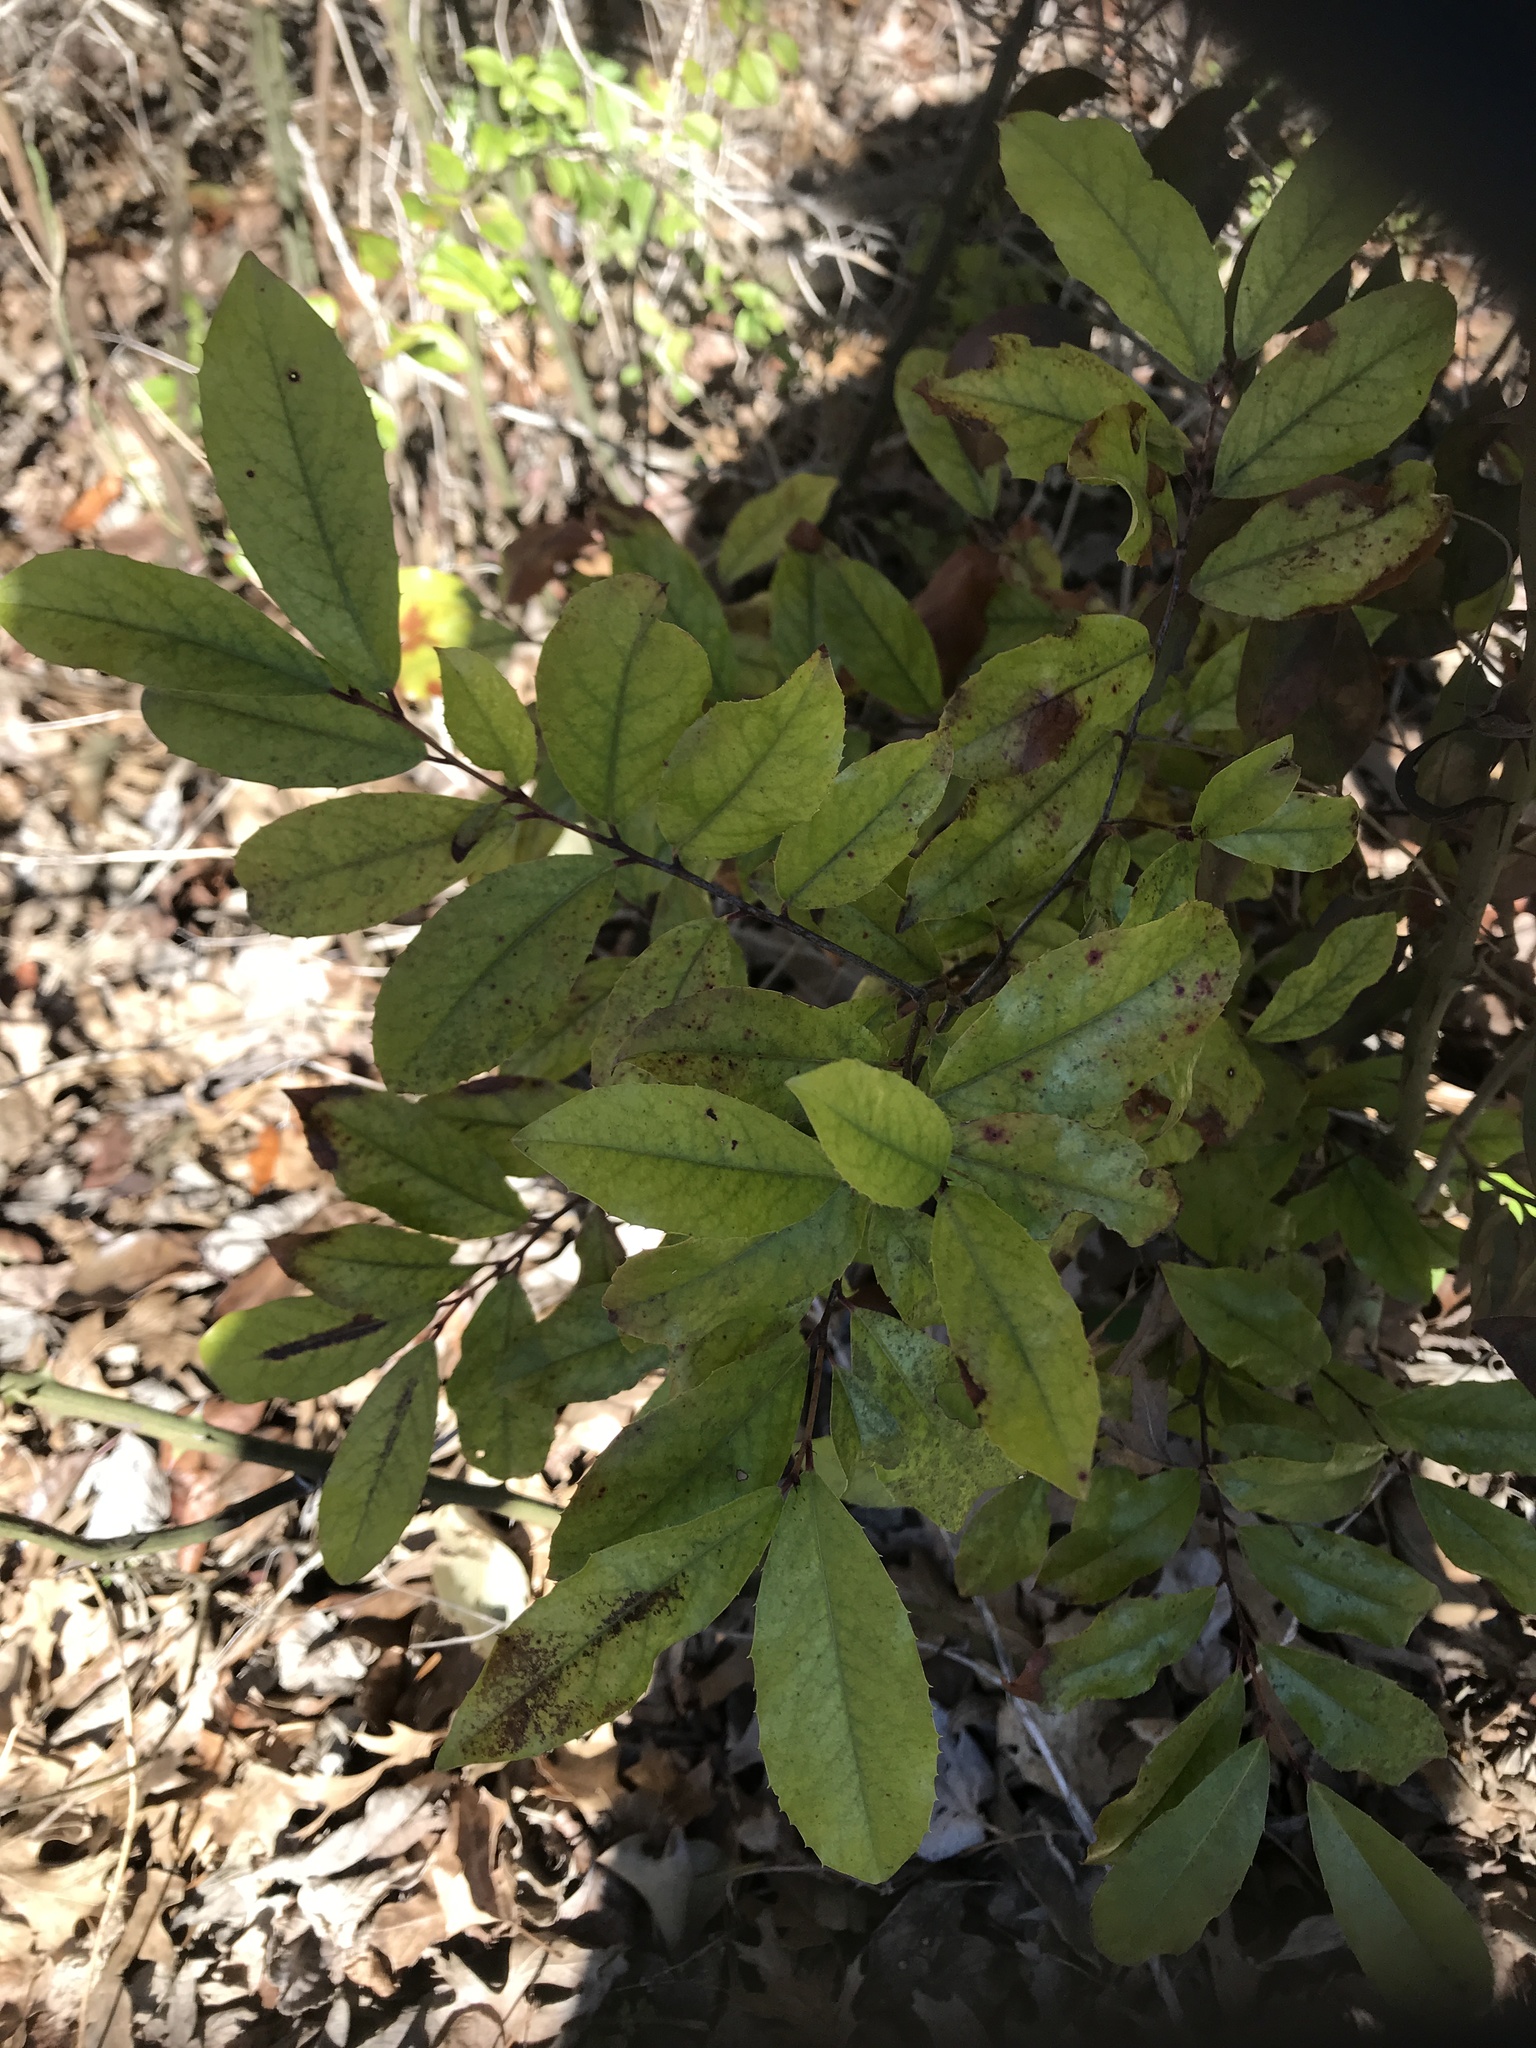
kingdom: Plantae
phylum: Tracheophyta
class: Magnoliopsida
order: Rosales
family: Rosaceae
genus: Prunus
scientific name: Prunus caroliniana
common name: Carolina laurel cherry
